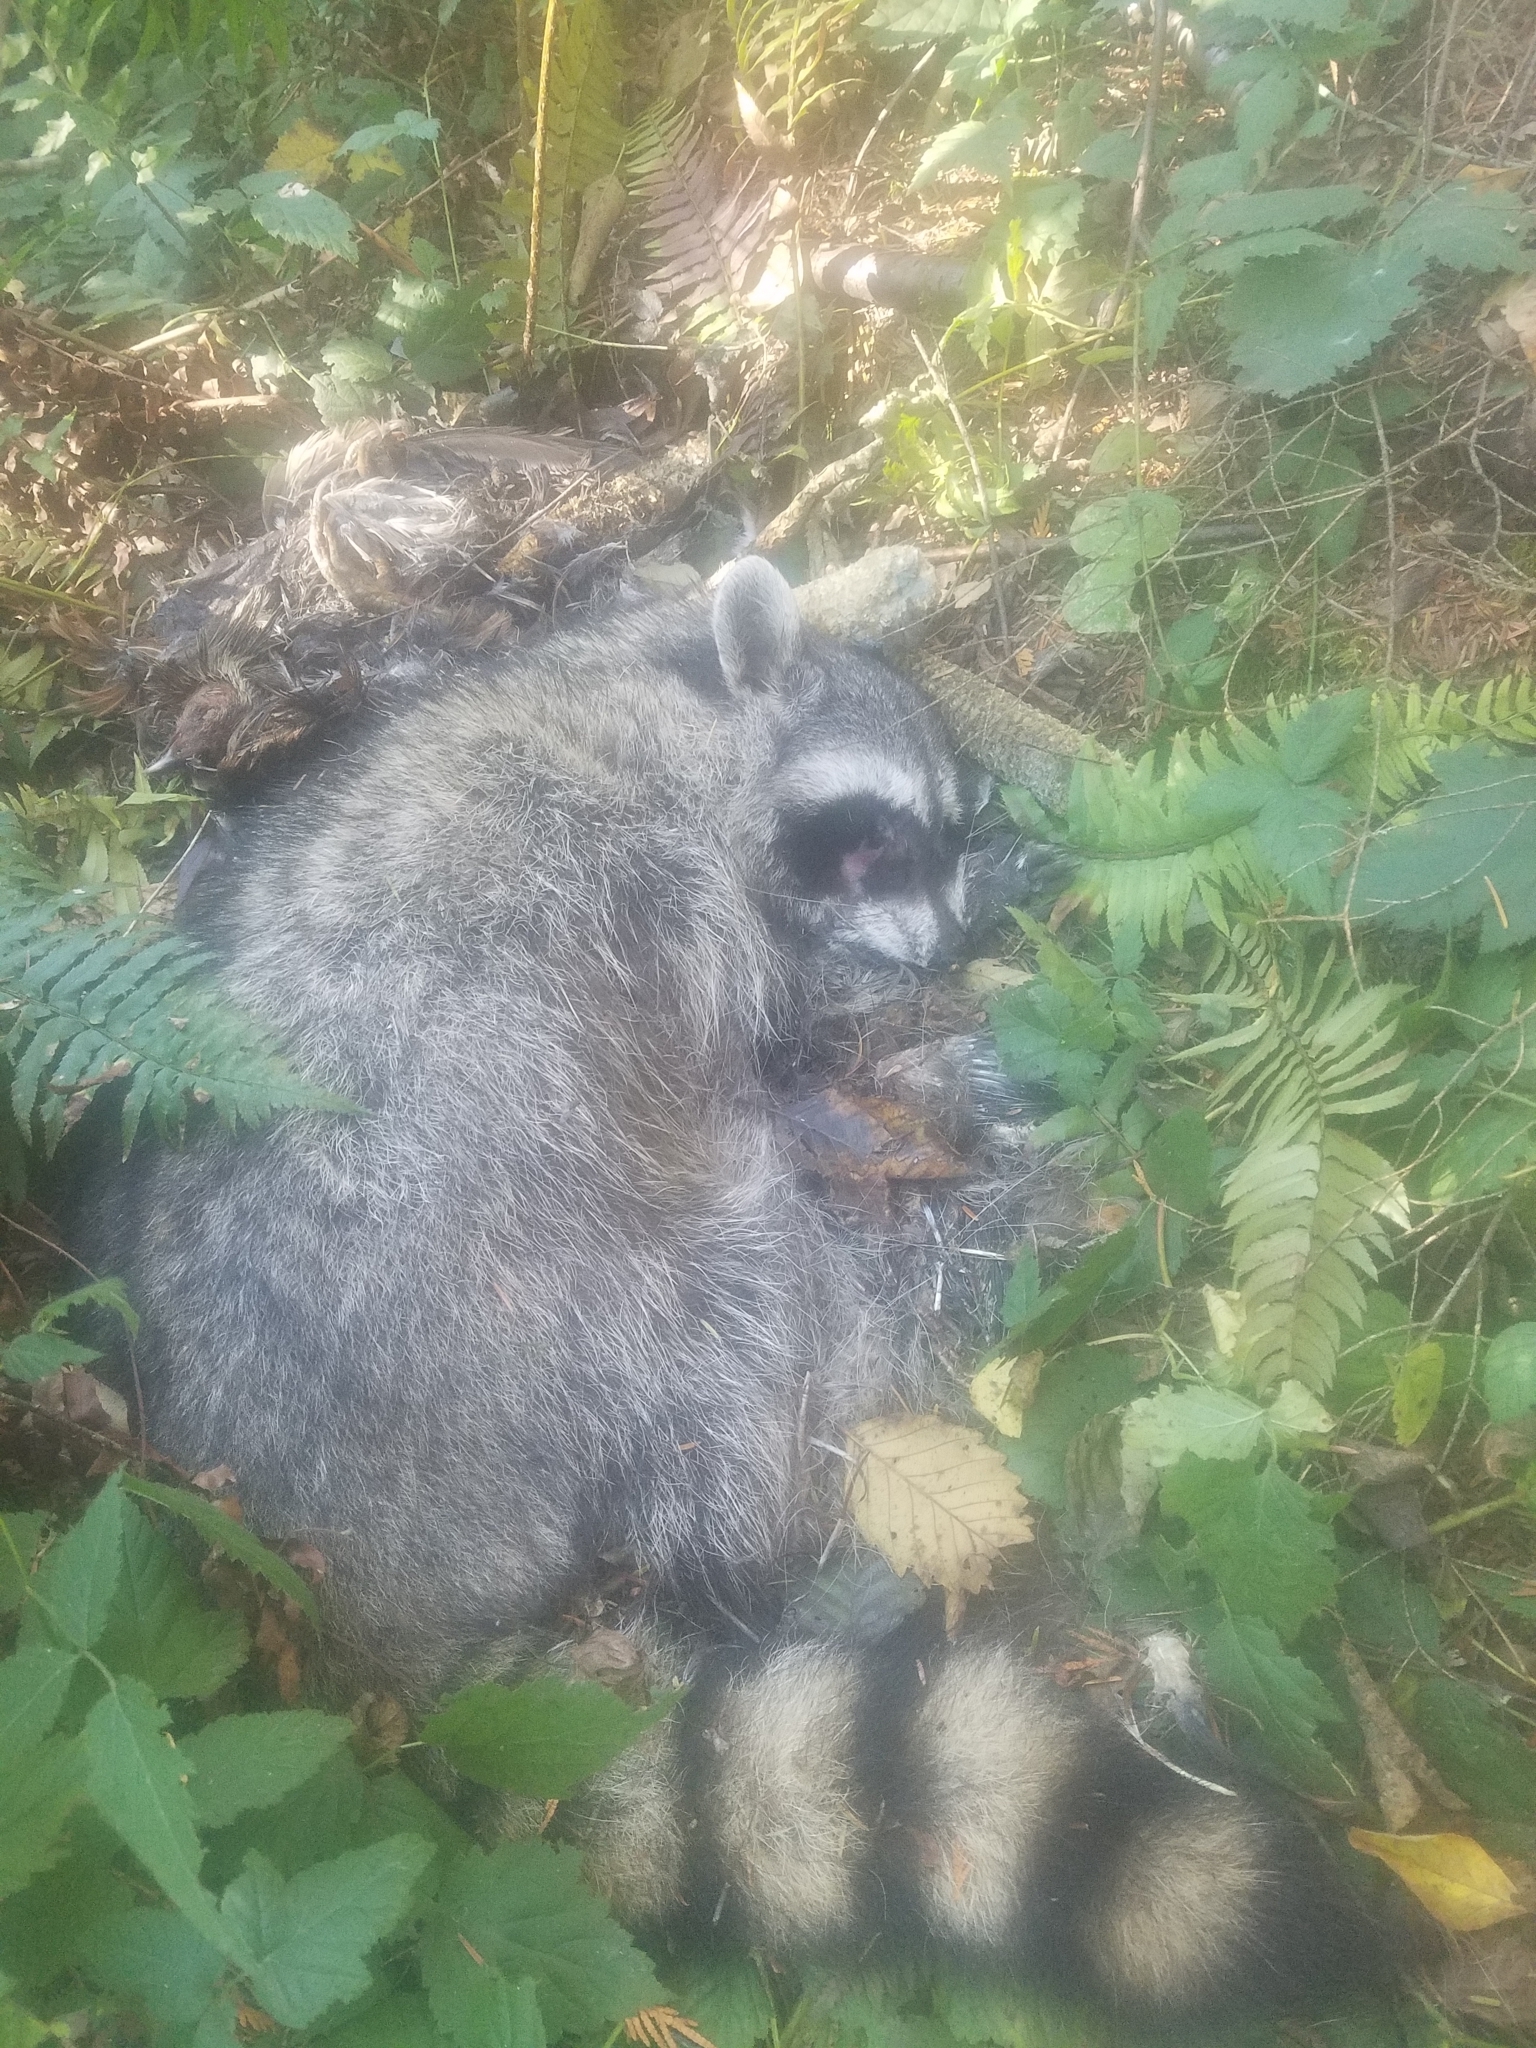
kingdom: Animalia
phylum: Chordata
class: Mammalia
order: Carnivora
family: Procyonidae
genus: Procyon
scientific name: Procyon lotor
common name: Raccoon
